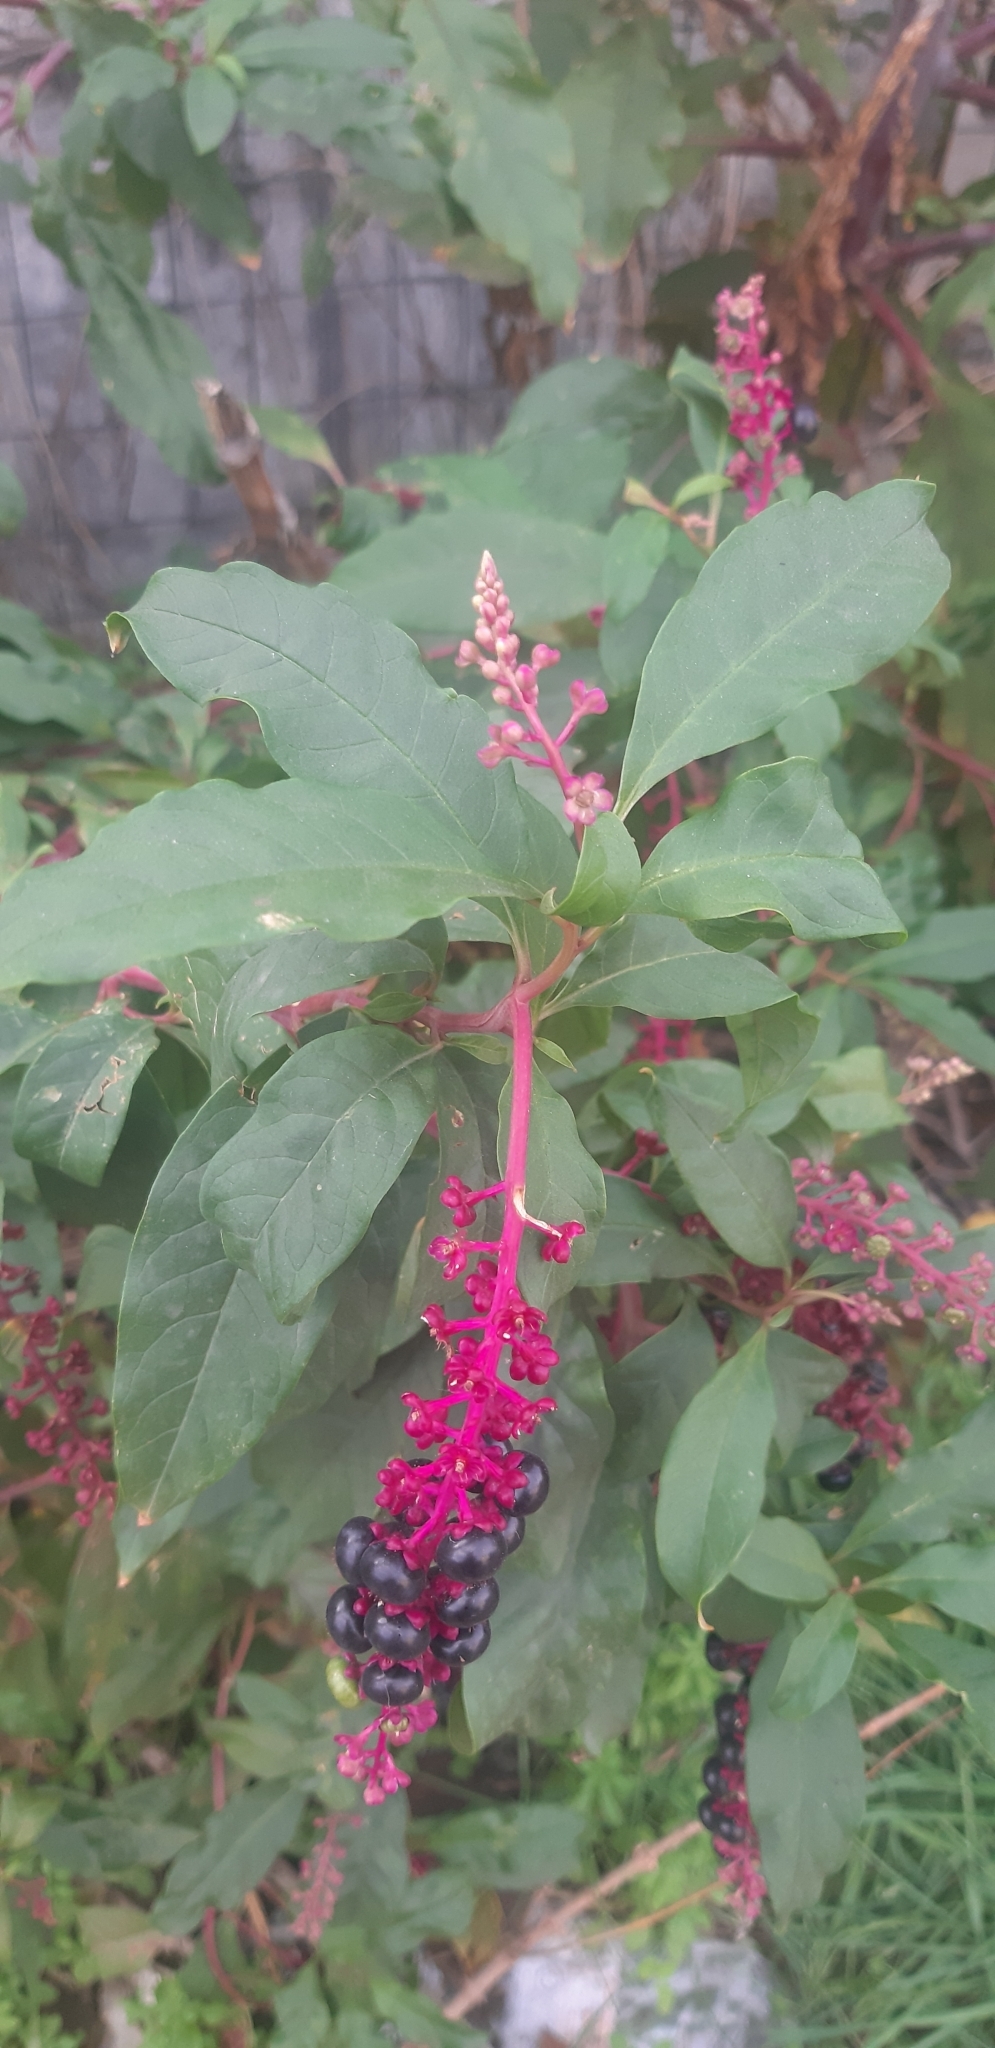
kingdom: Plantae
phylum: Tracheophyta
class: Magnoliopsida
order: Caryophyllales
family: Phytolaccaceae
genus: Phytolacca
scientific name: Phytolacca americana
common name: American pokeweed
